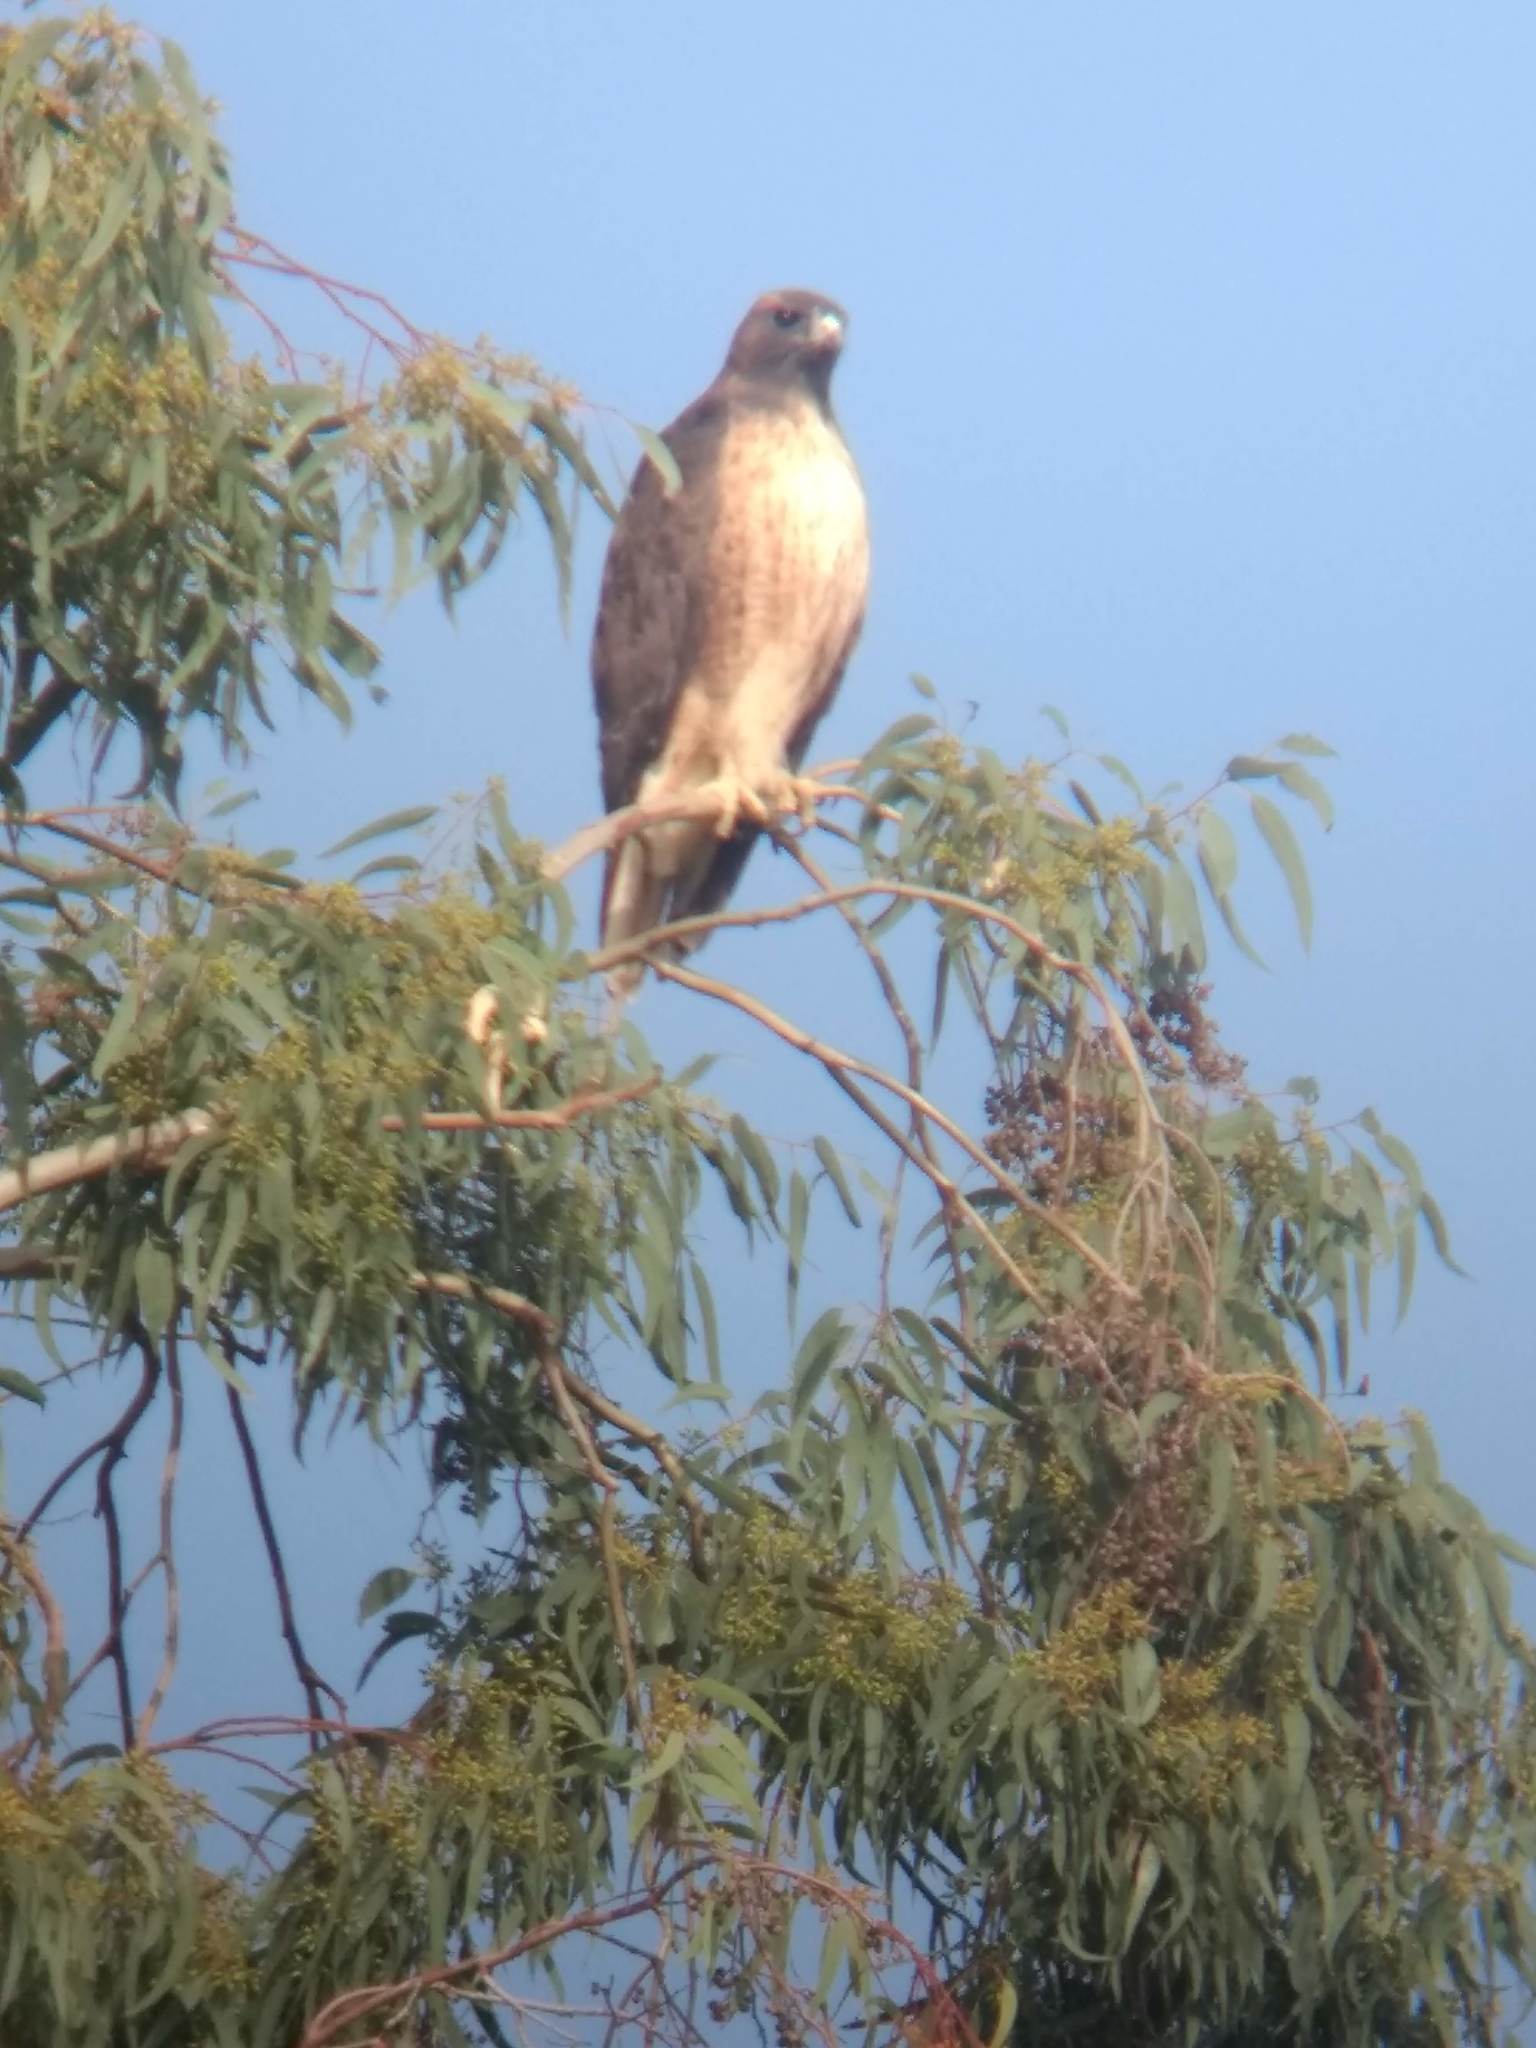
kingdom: Animalia
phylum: Chordata
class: Aves
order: Accipitriformes
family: Accipitridae
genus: Buteo
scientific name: Buteo jamaicensis
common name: Red-tailed hawk
